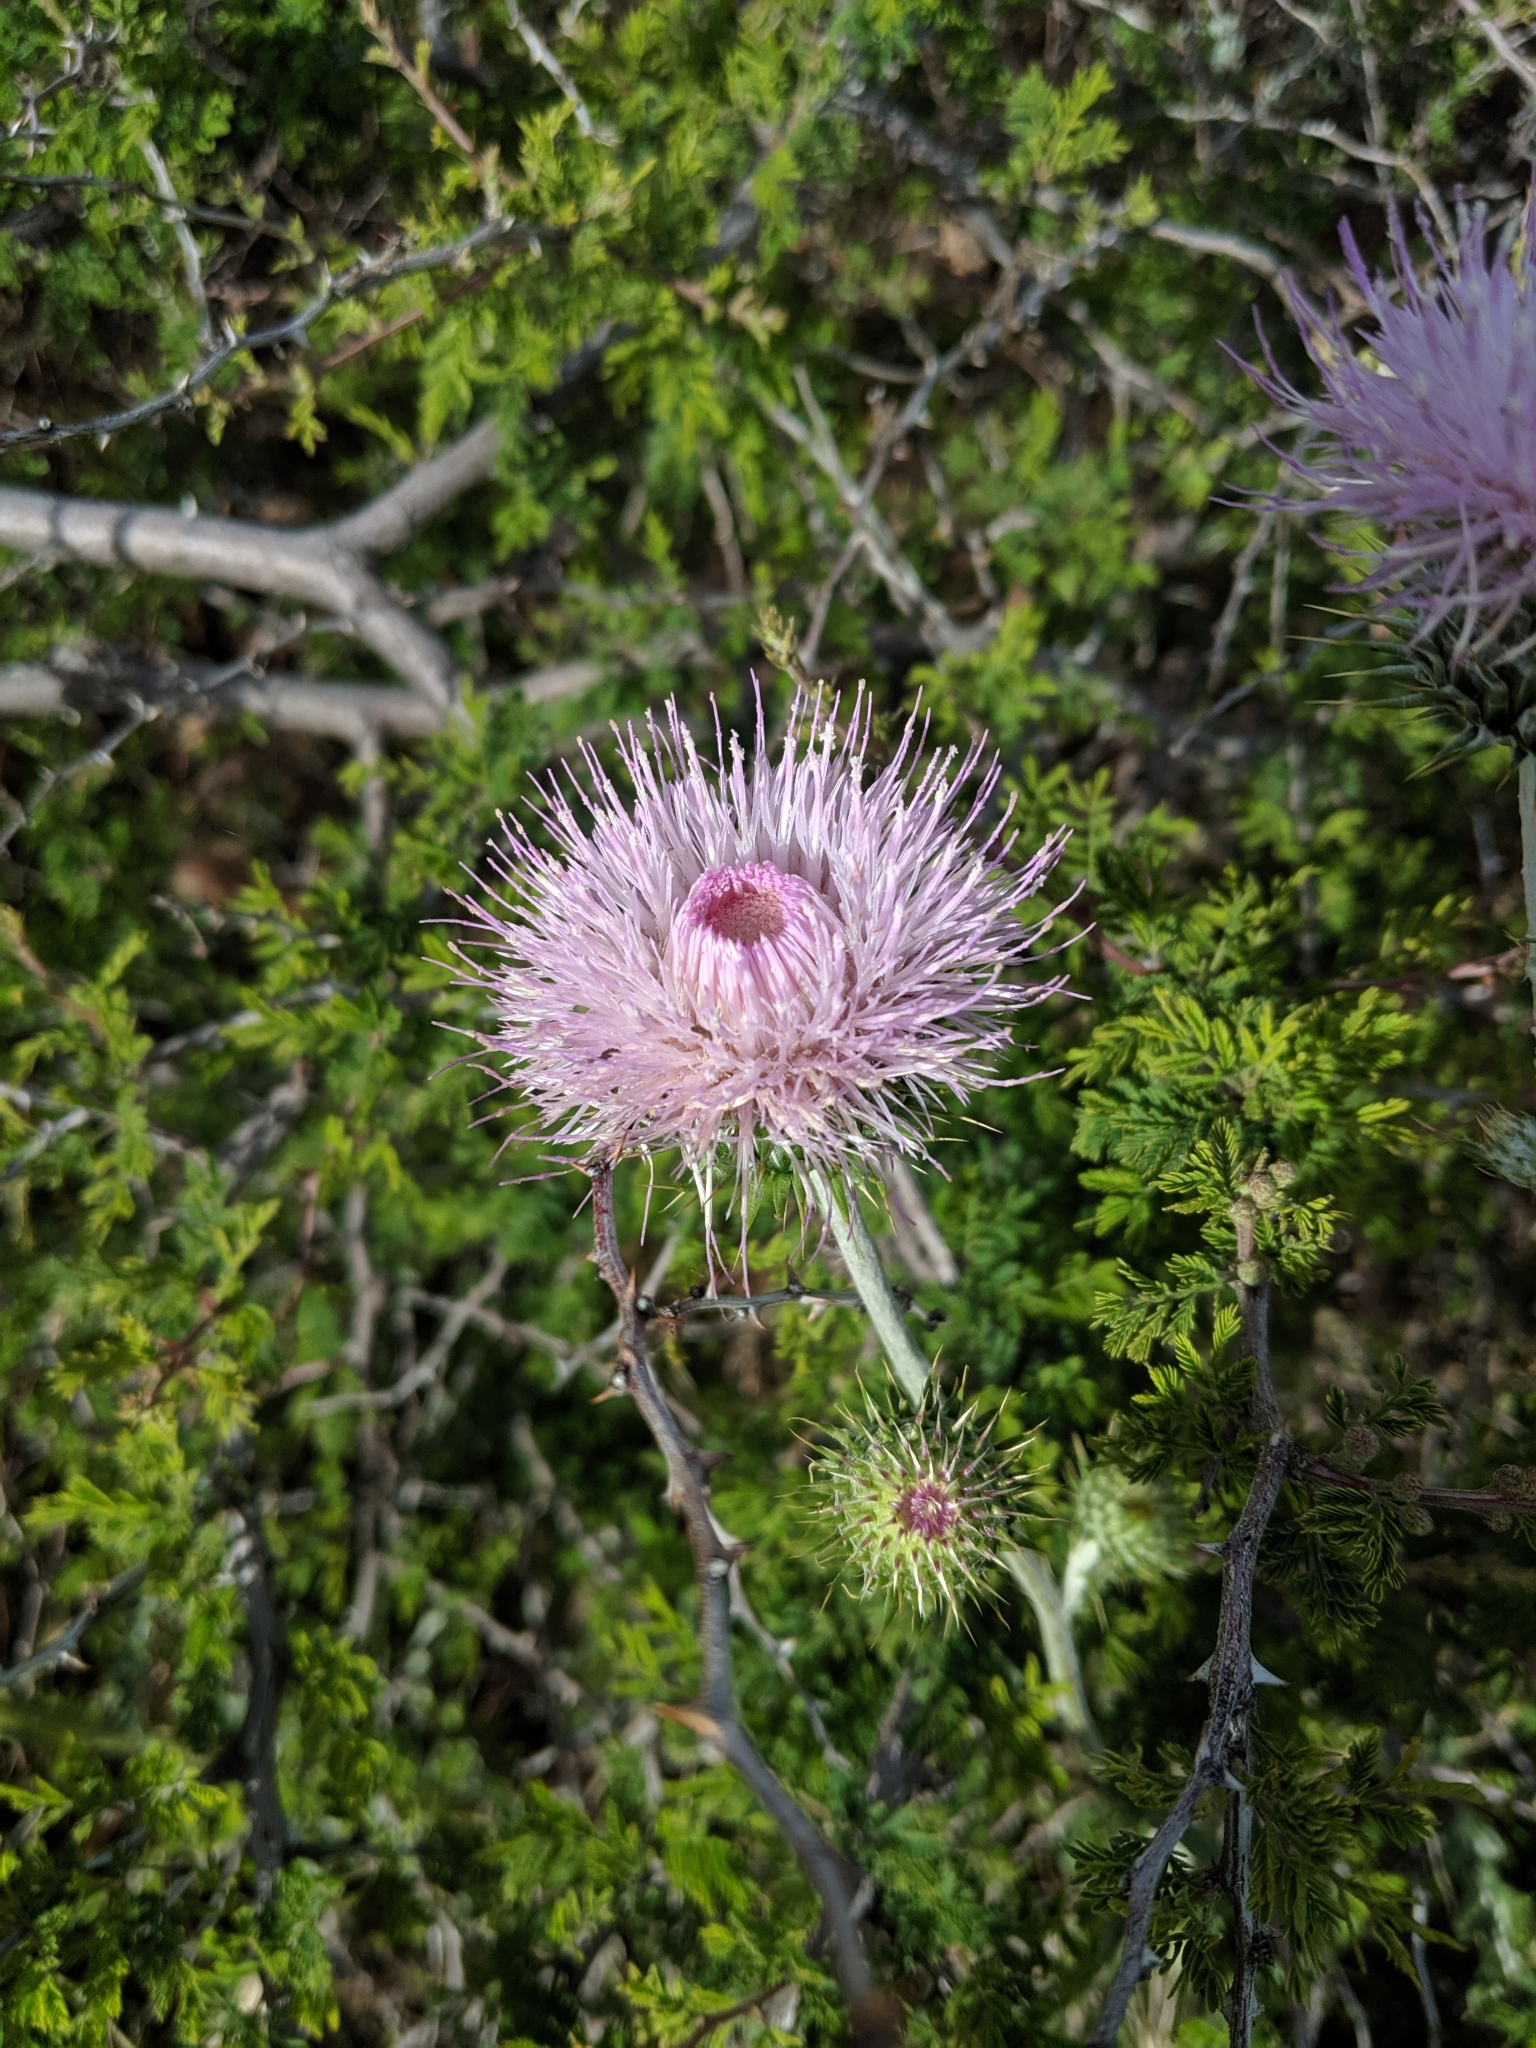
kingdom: Plantae
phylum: Tracheophyta
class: Magnoliopsida
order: Asterales
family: Asteraceae
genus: Cirsium
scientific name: Cirsium neomexicanum
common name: New mexico thistle
